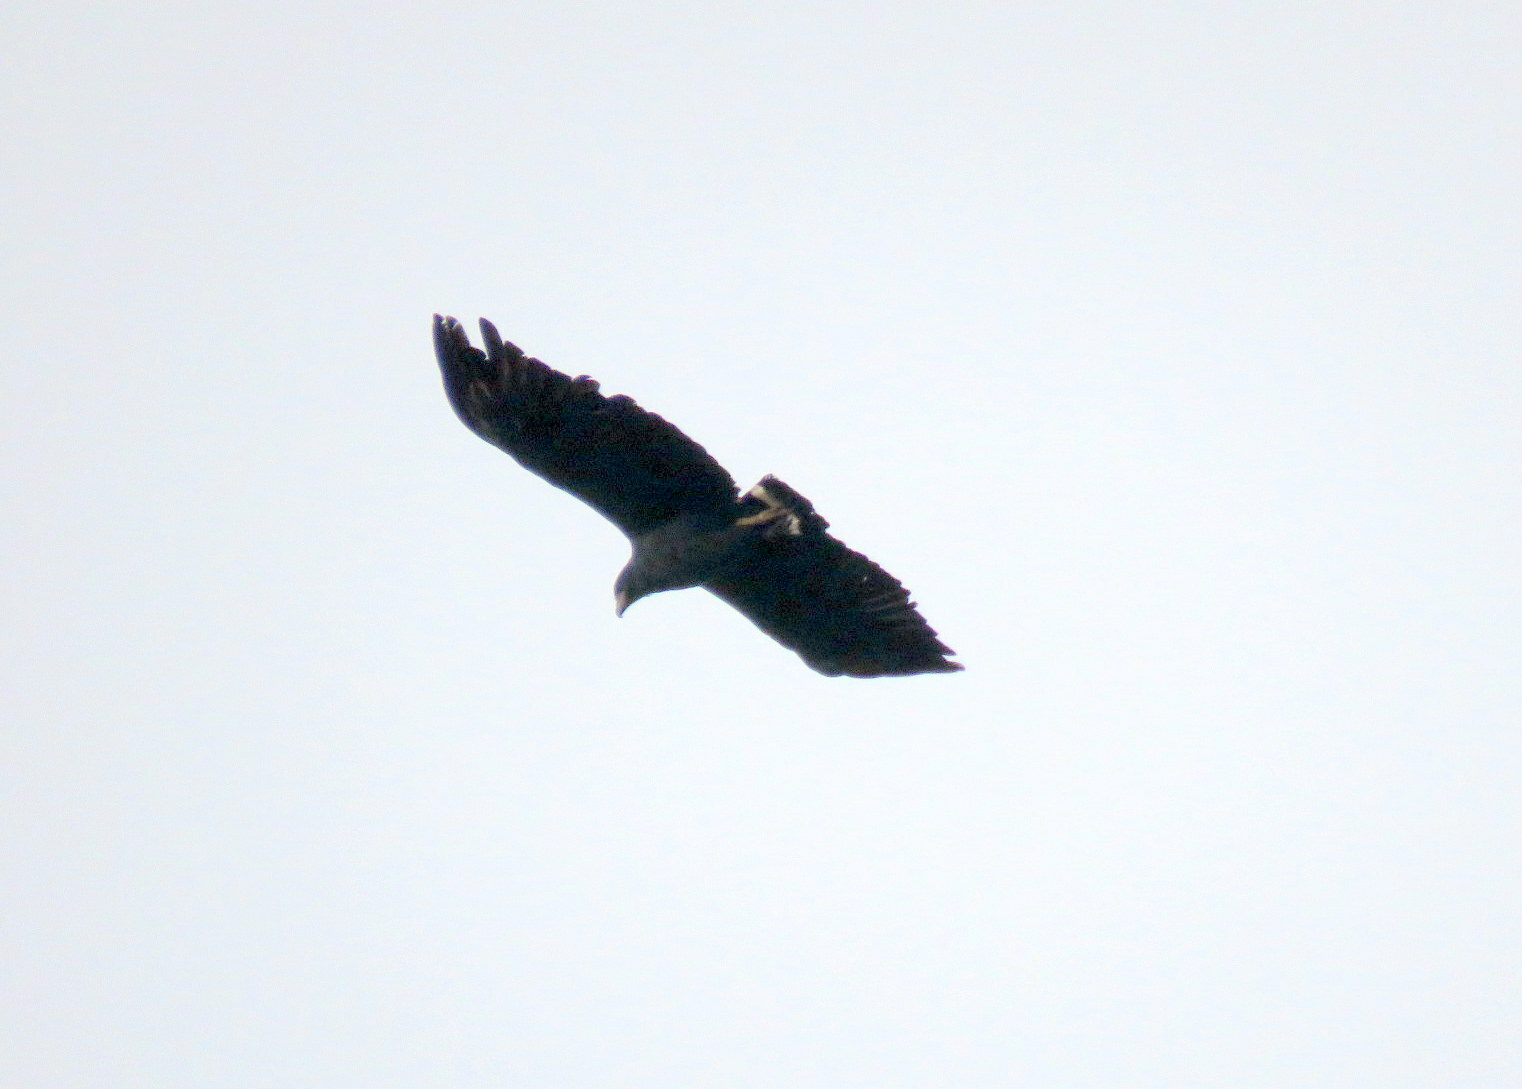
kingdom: Animalia
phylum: Chordata
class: Aves
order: Accipitriformes
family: Accipitridae
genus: Harpyhaliaetus
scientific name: Harpyhaliaetus solitarius
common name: Solitary eagle
